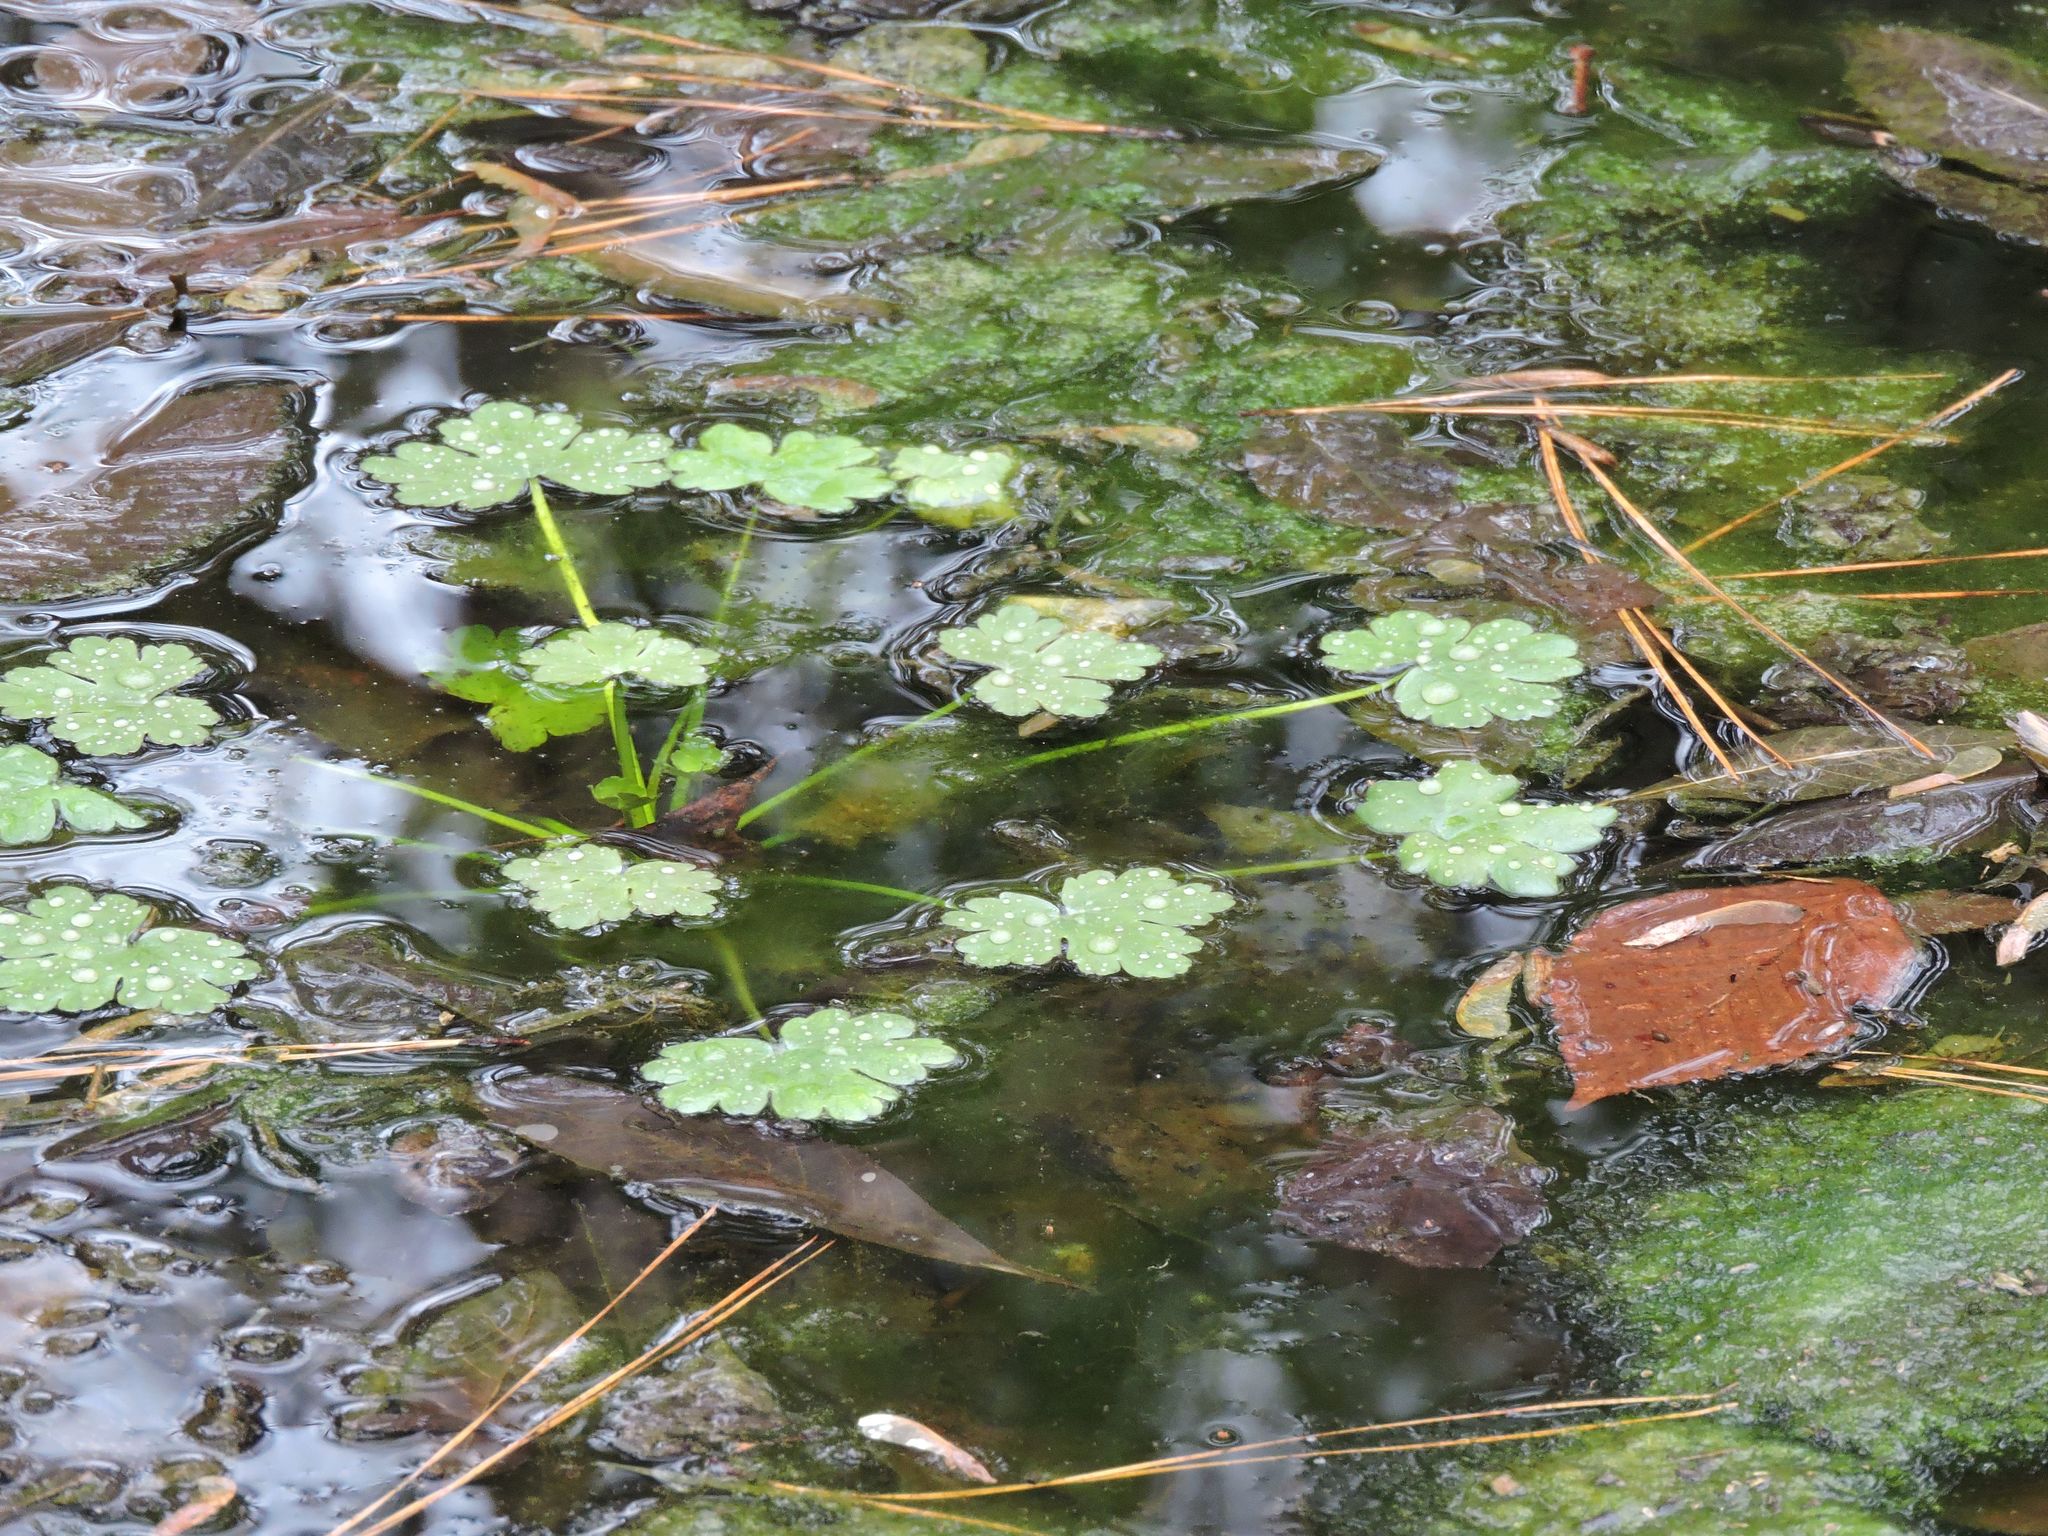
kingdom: Plantae
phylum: Tracheophyta
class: Magnoliopsida
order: Ranunculales
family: Ranunculaceae
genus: Ranunculus
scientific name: Ranunculus sceleratus
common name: Celery-leaved buttercup
